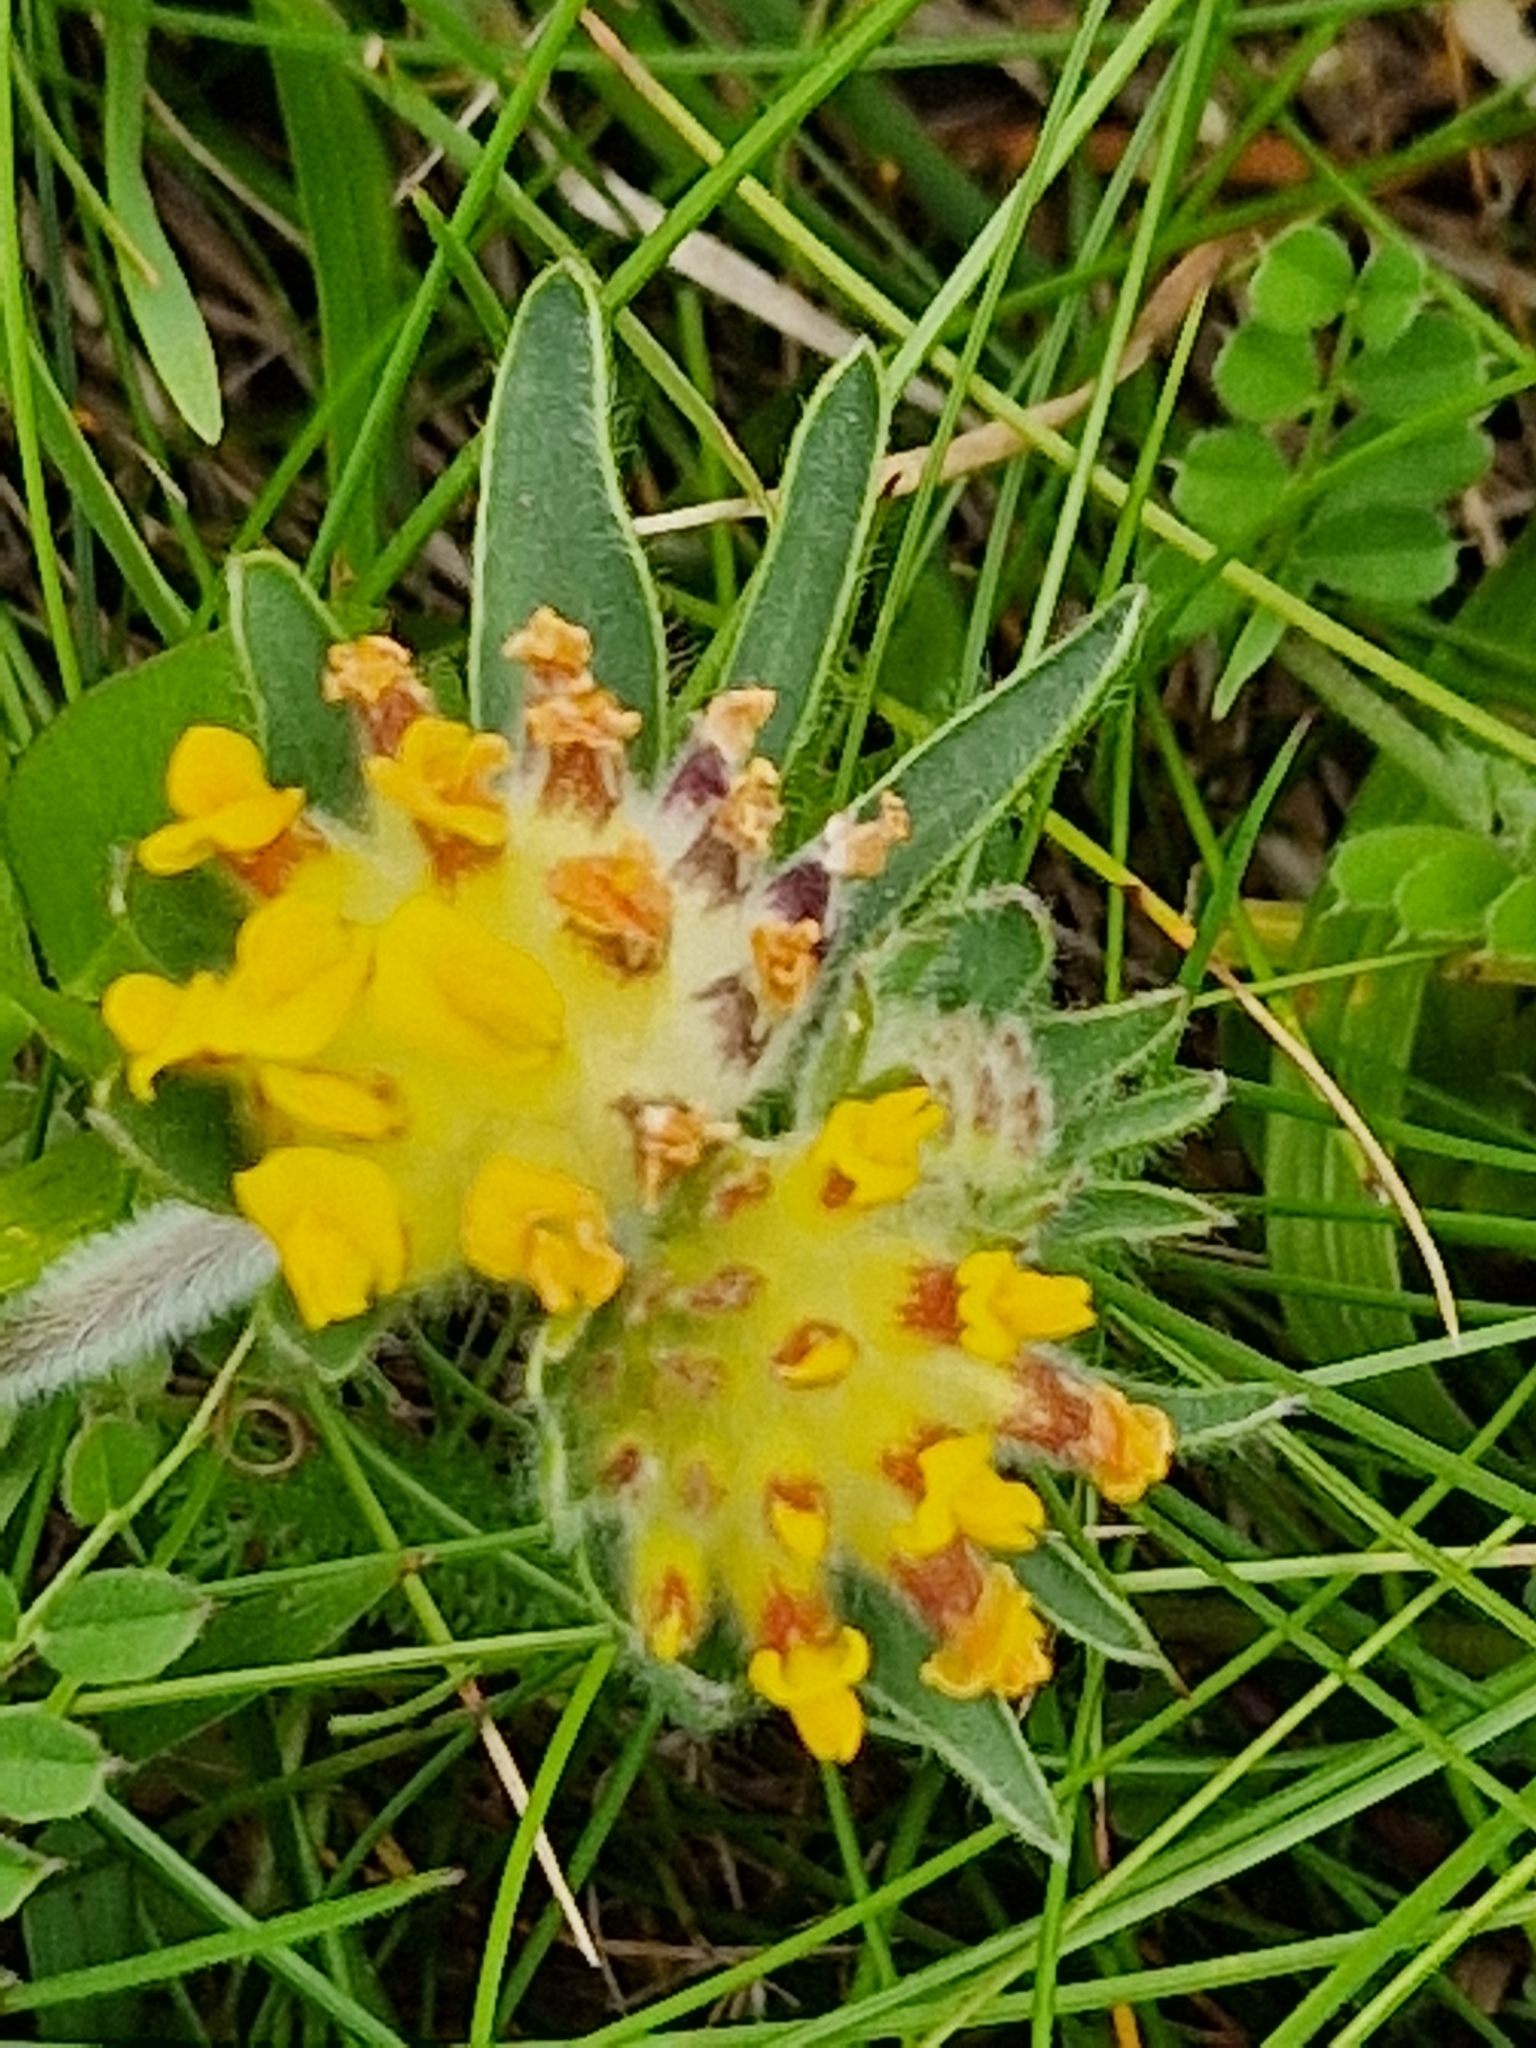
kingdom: Plantae
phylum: Tracheophyta
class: Magnoliopsida
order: Fabales
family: Fabaceae
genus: Anthyllis
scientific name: Anthyllis vulneraria
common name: Kidney vetch
